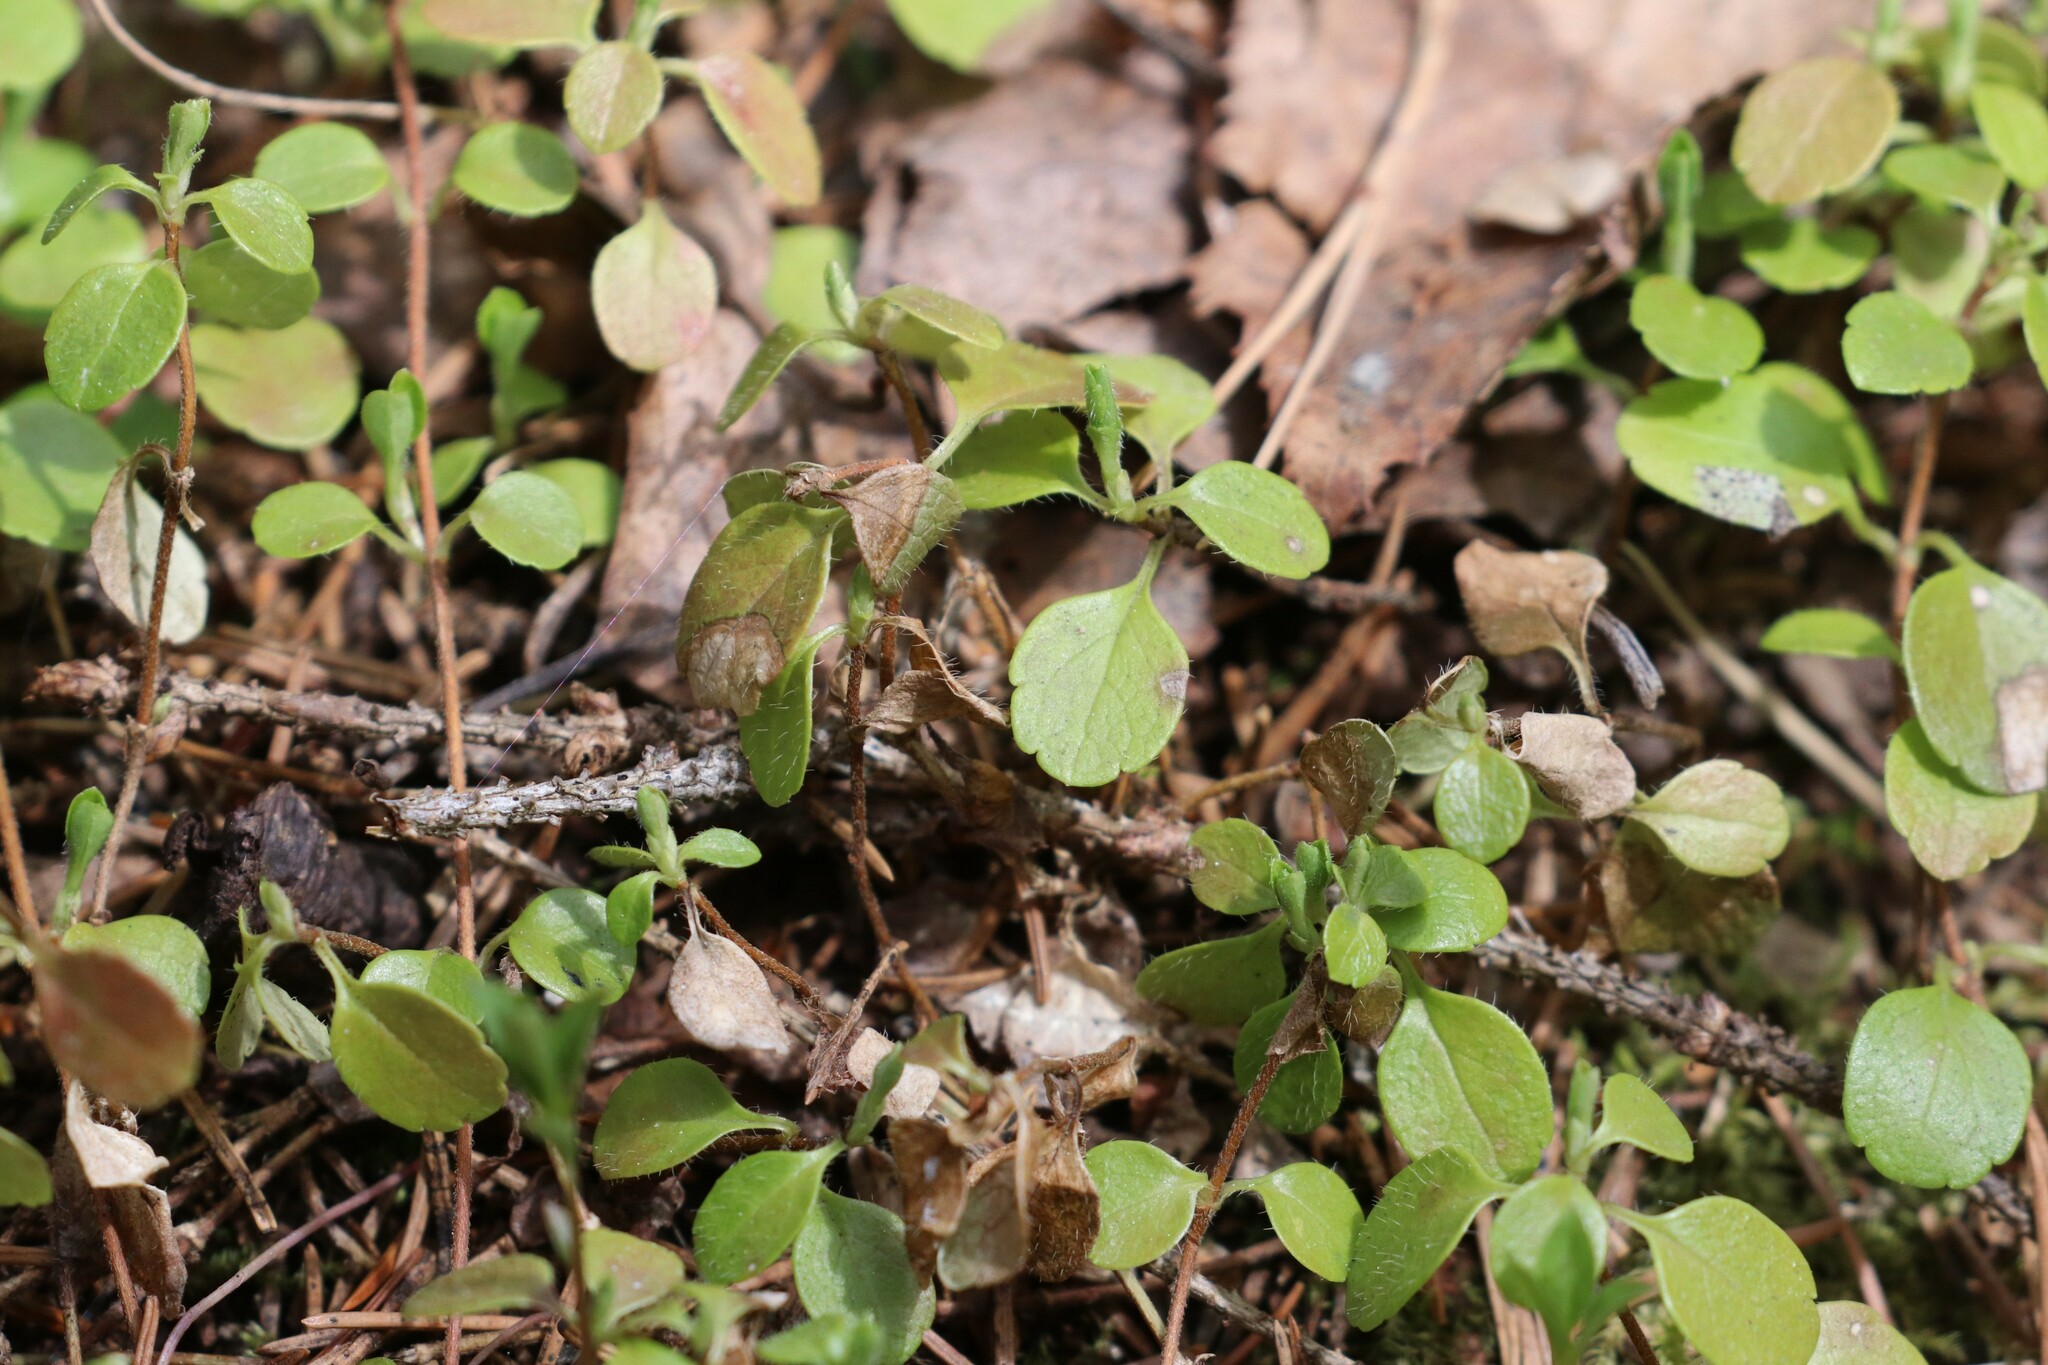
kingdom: Plantae
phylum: Tracheophyta
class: Magnoliopsida
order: Dipsacales
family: Caprifoliaceae
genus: Linnaea
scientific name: Linnaea borealis
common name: Twinflower
